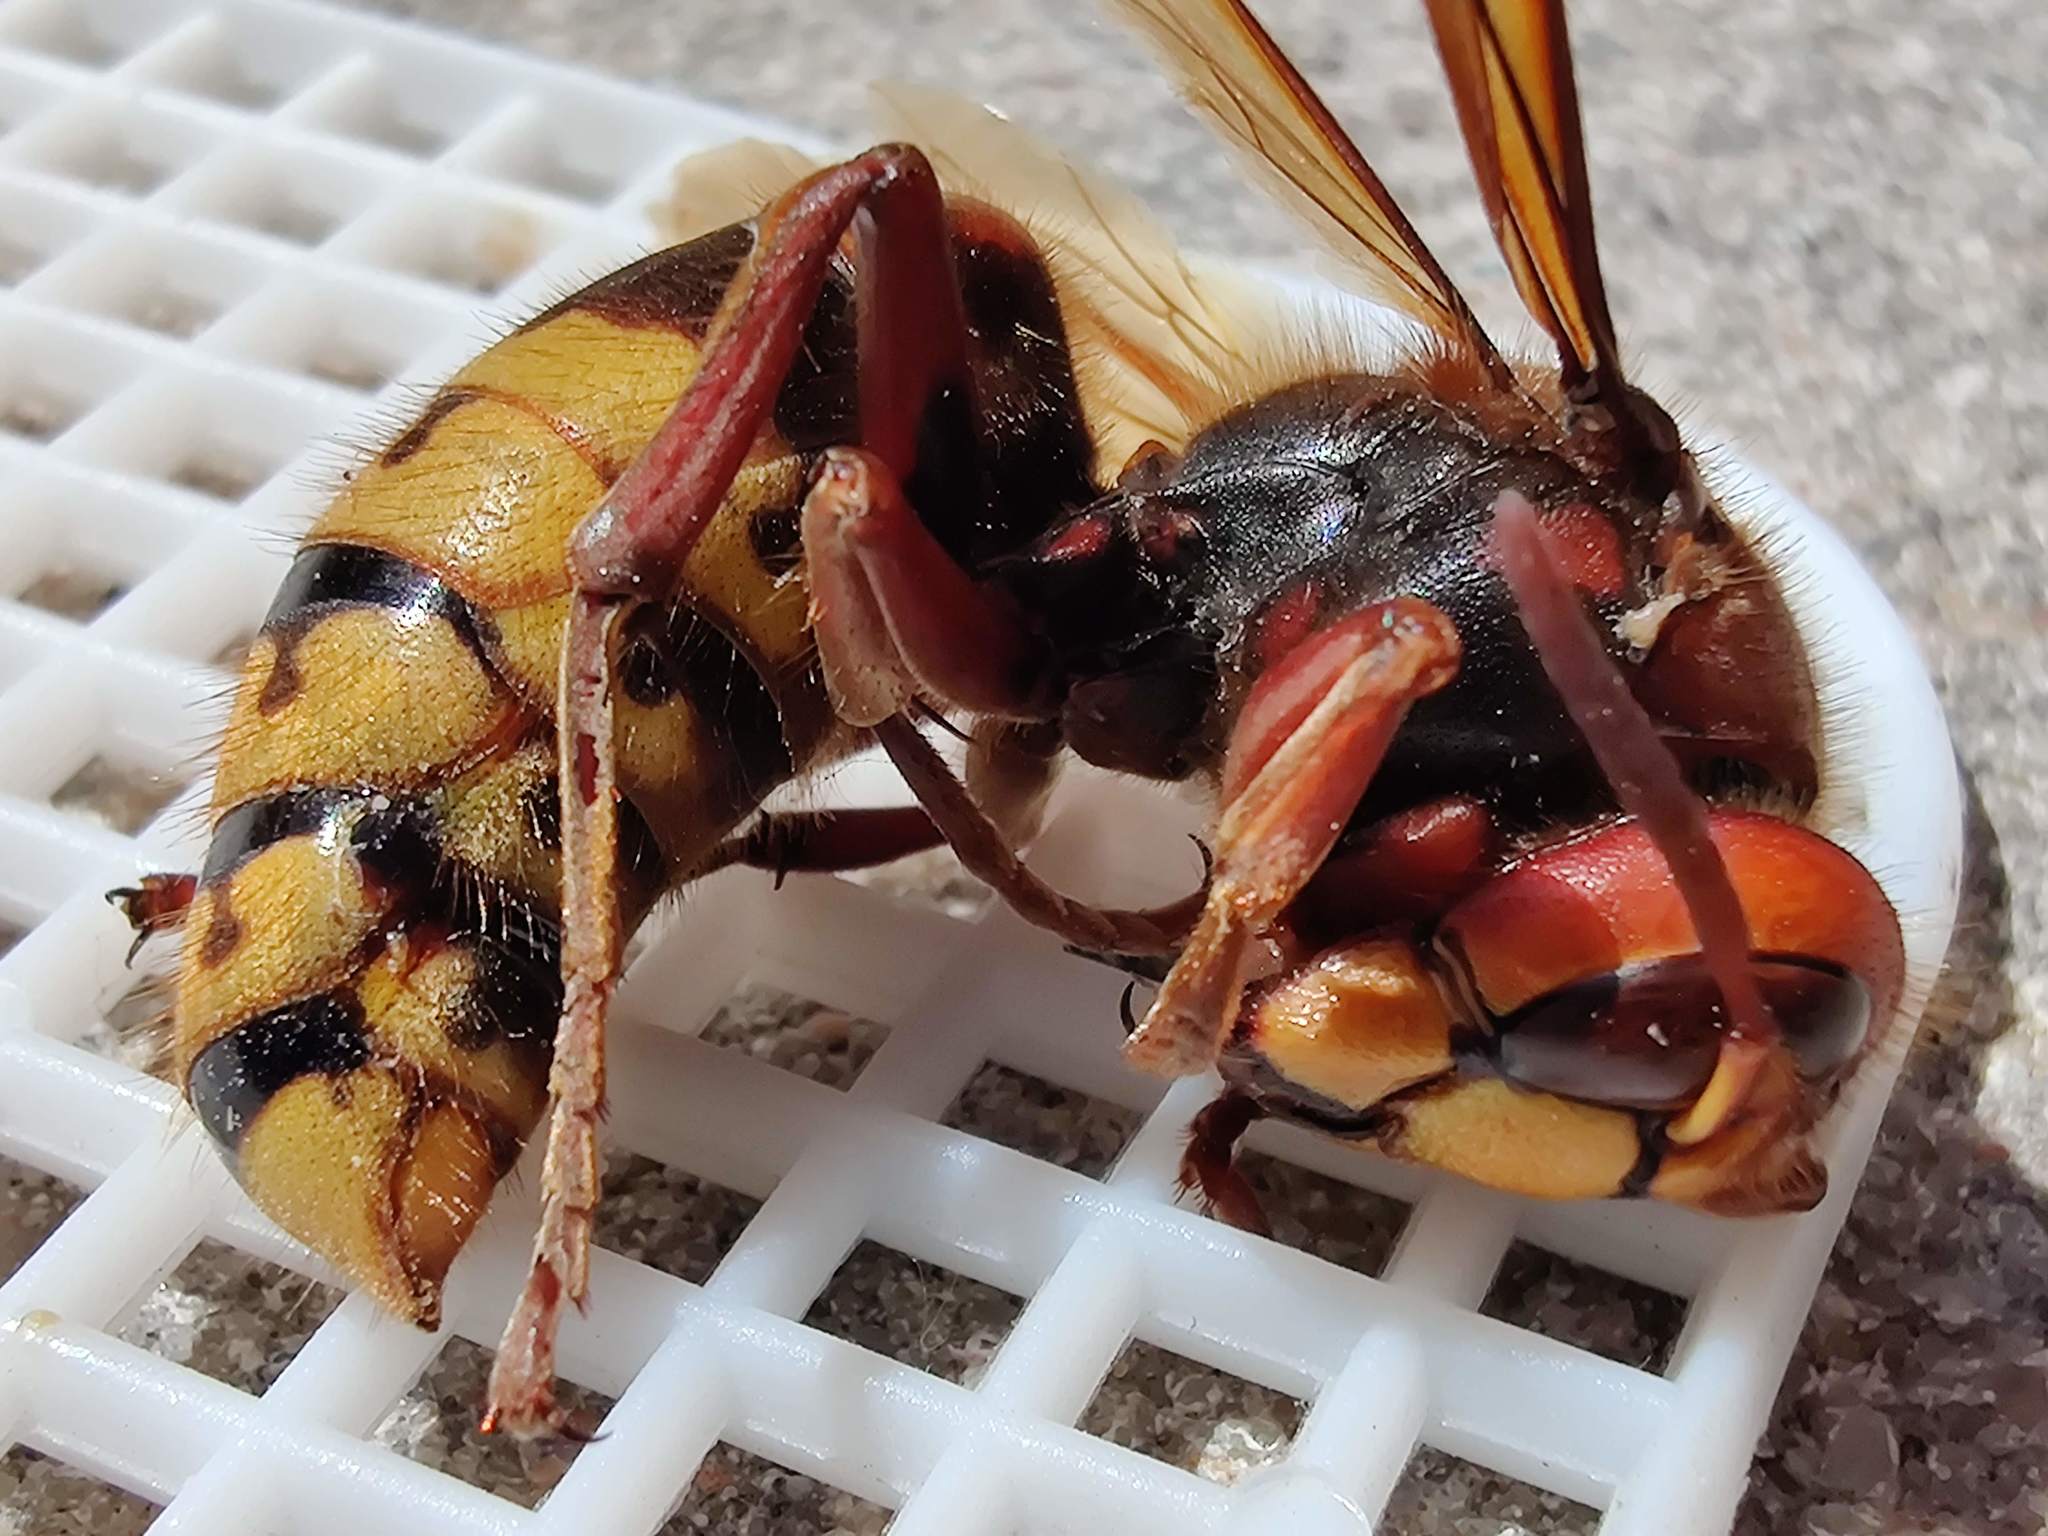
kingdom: Animalia
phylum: Arthropoda
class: Insecta
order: Hymenoptera
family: Vespidae
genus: Vespa
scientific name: Vespa crabro
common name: Hornet
